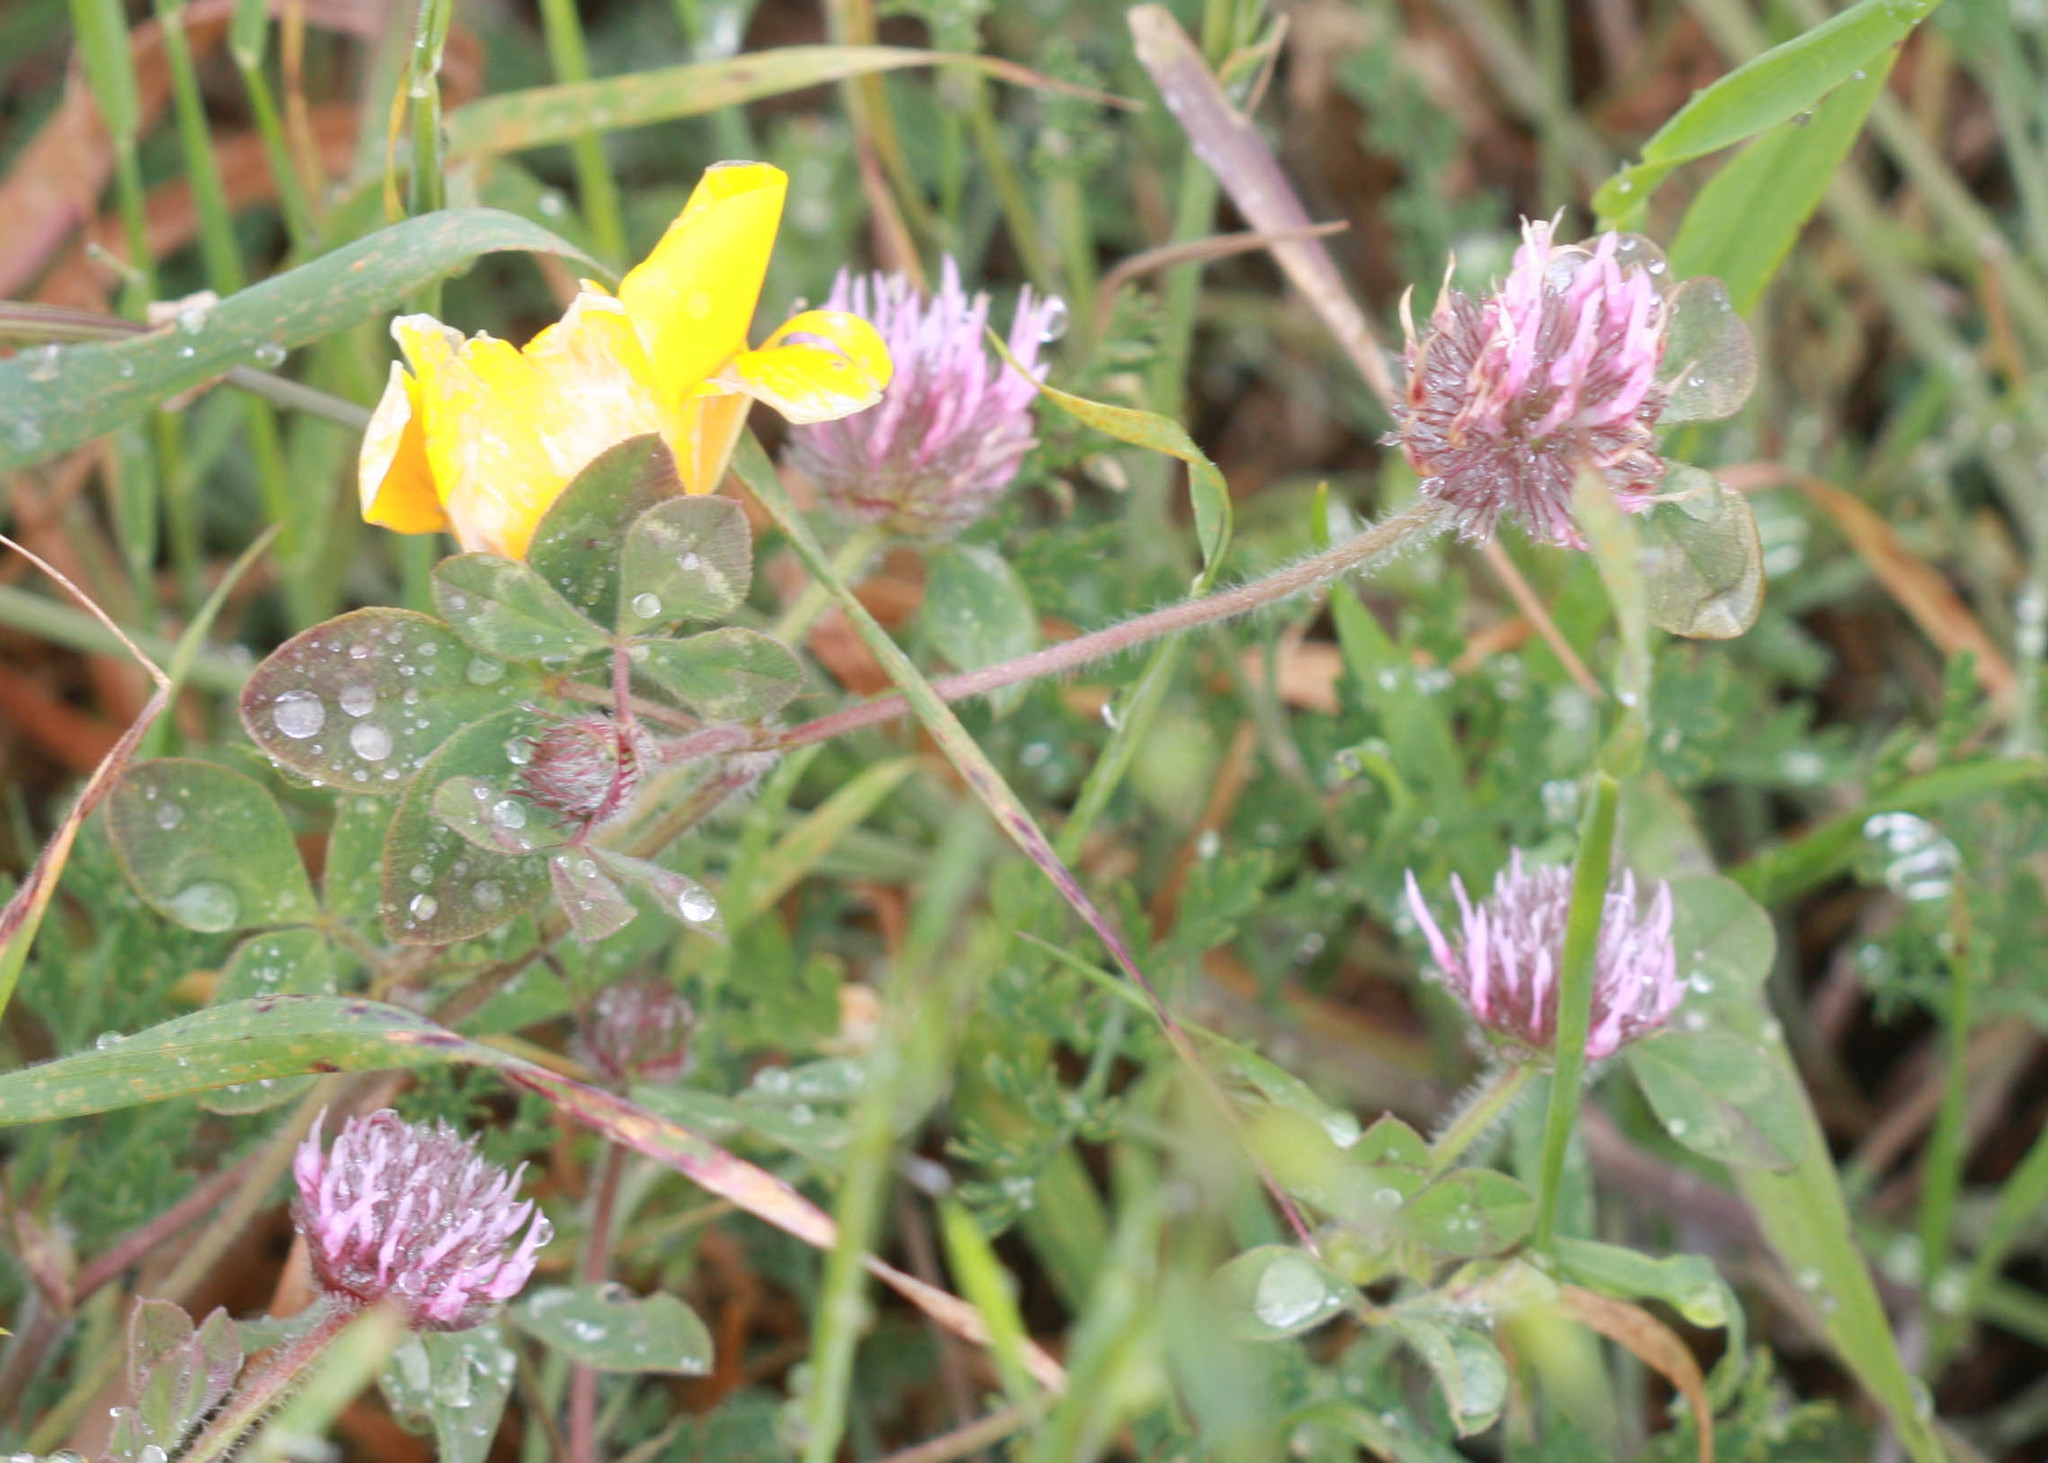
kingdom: Plantae
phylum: Tracheophyta
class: Magnoliopsida
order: Fabales
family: Fabaceae
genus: Trifolium
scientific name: Trifolium hirtum
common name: Rose clover
